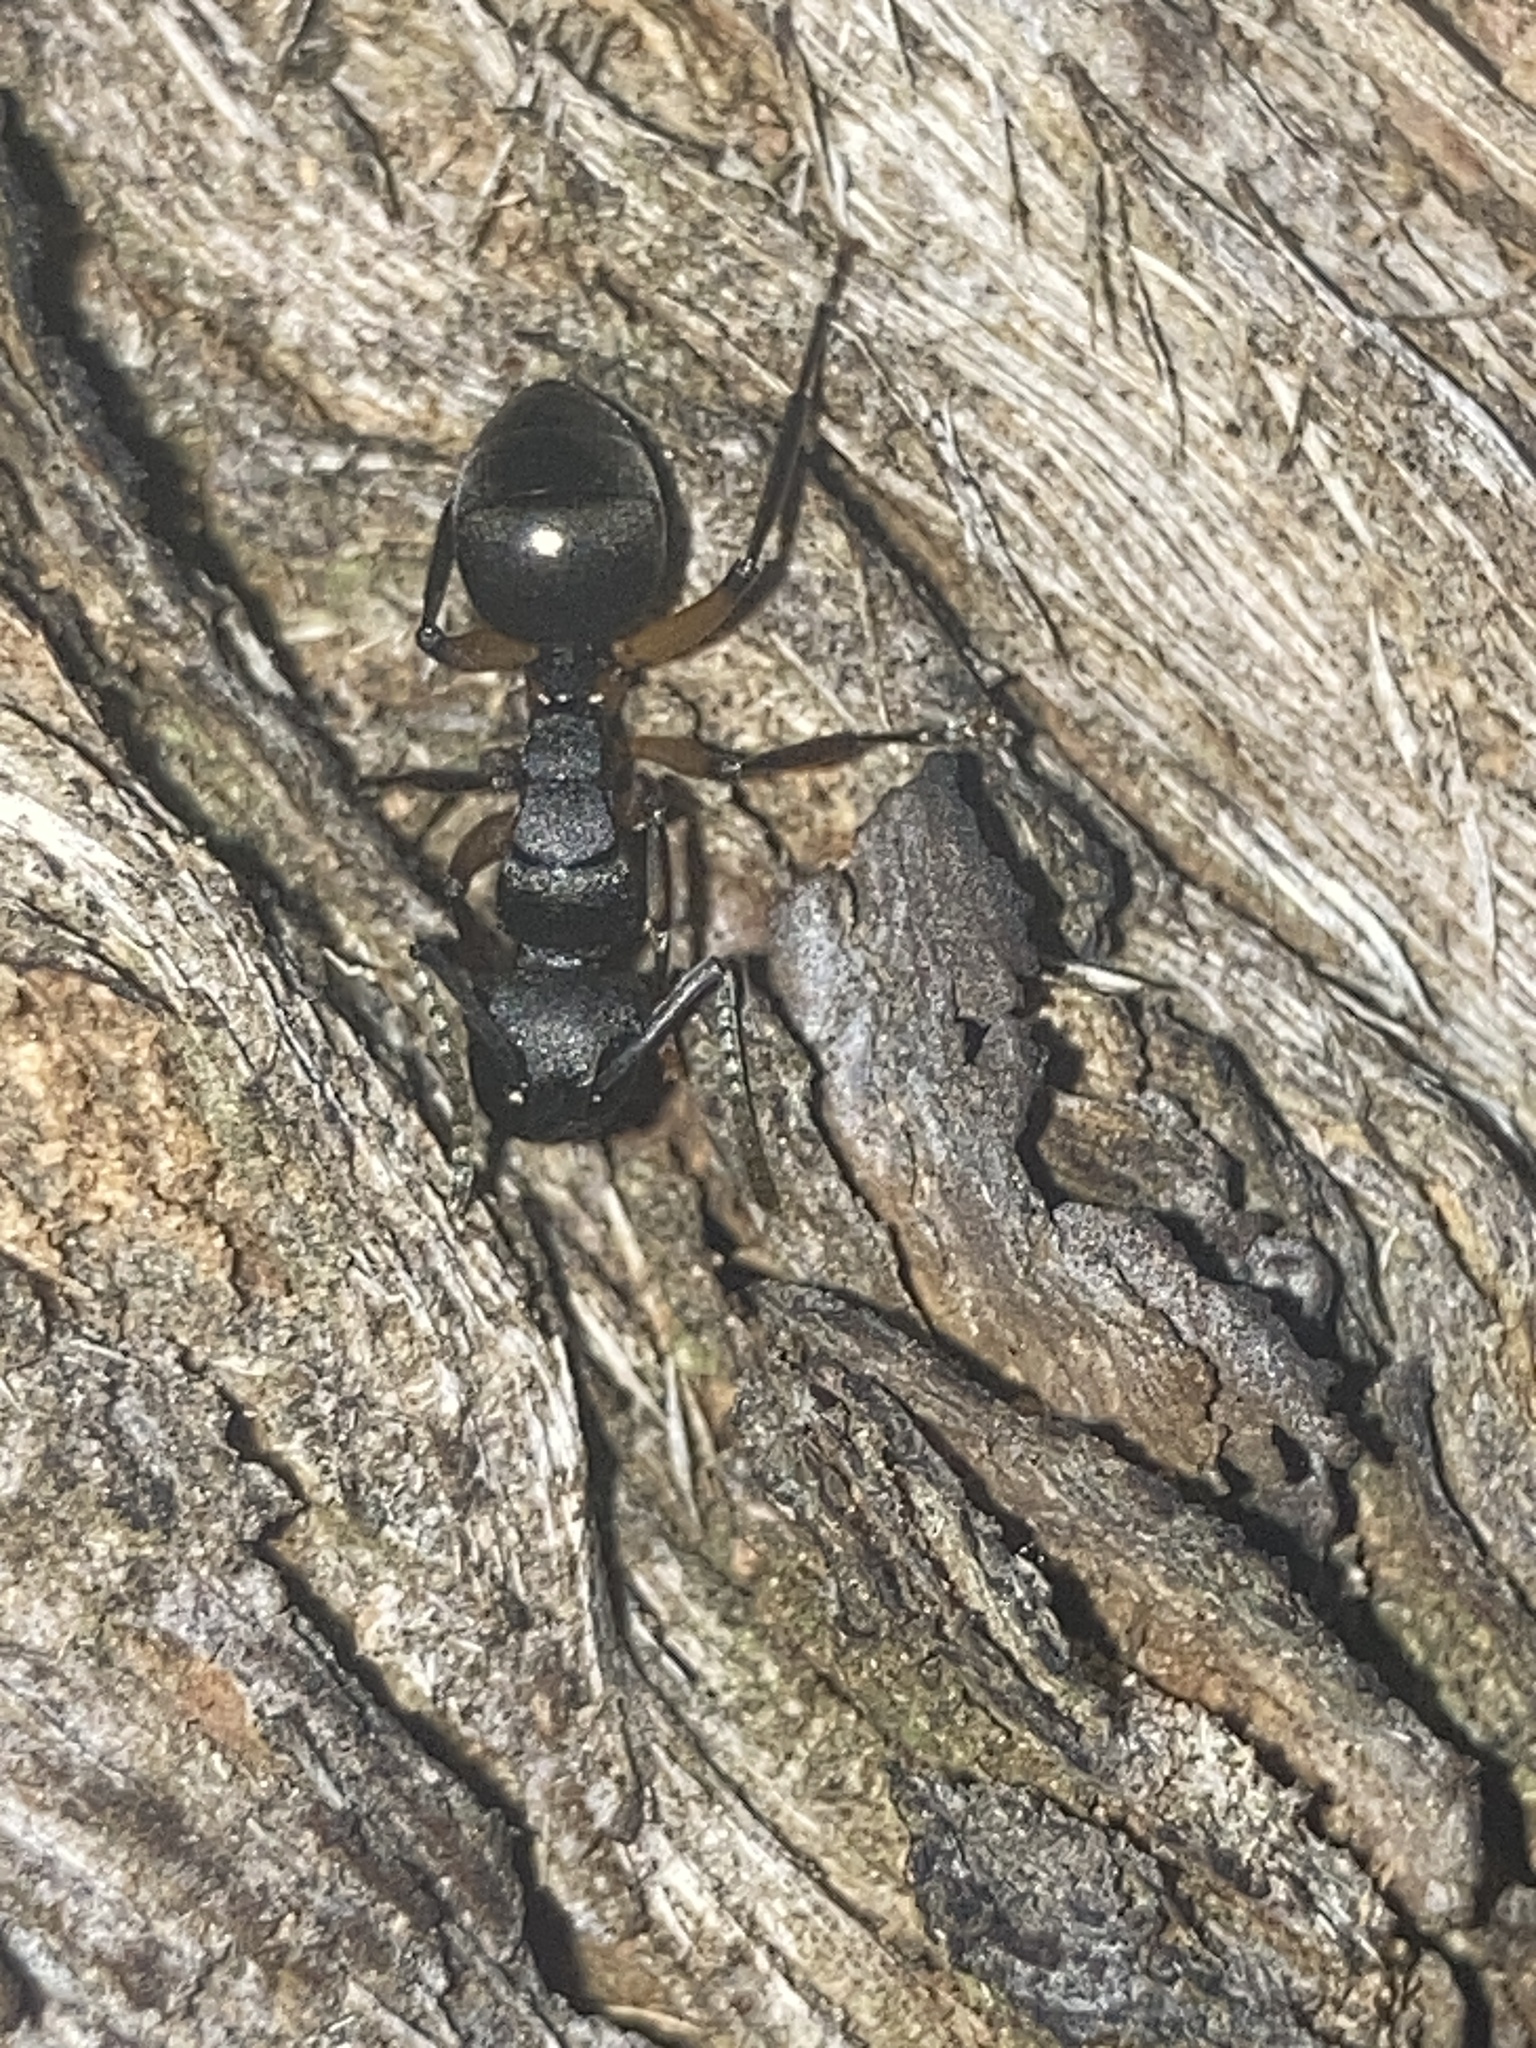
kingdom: Animalia
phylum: Arthropoda
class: Insecta
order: Hymenoptera
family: Formicidae
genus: Polyrhachis
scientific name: Polyrhachis femorata
